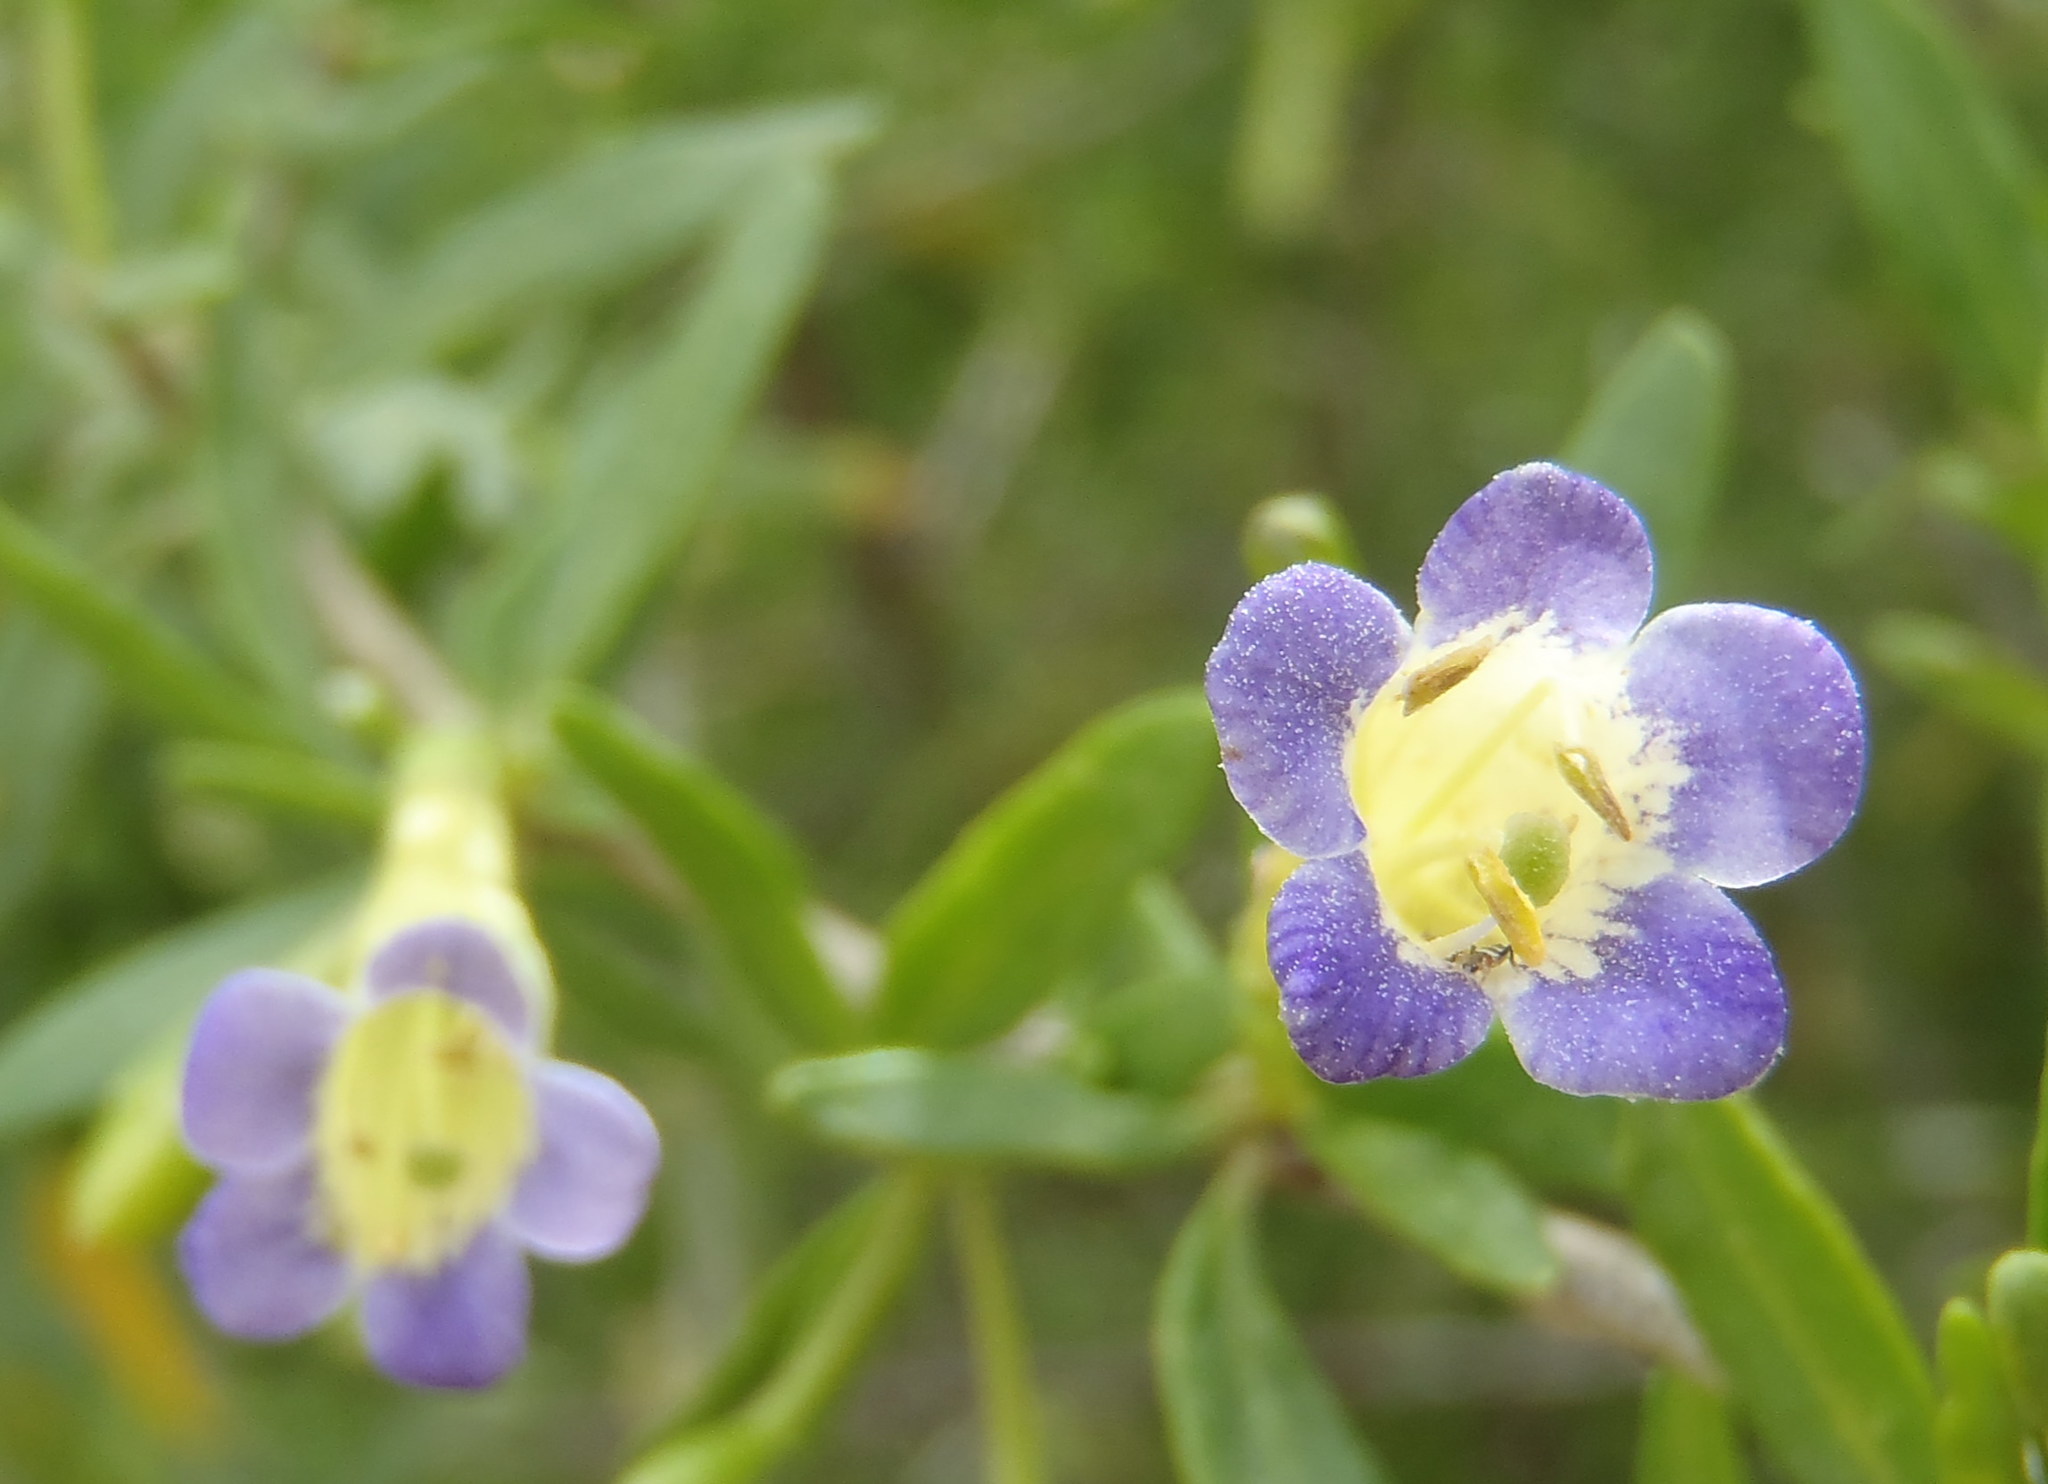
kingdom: Plantae
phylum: Tracheophyta
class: Magnoliopsida
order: Solanales
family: Solanaceae
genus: Lycium
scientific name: Lycium oxycarpum
